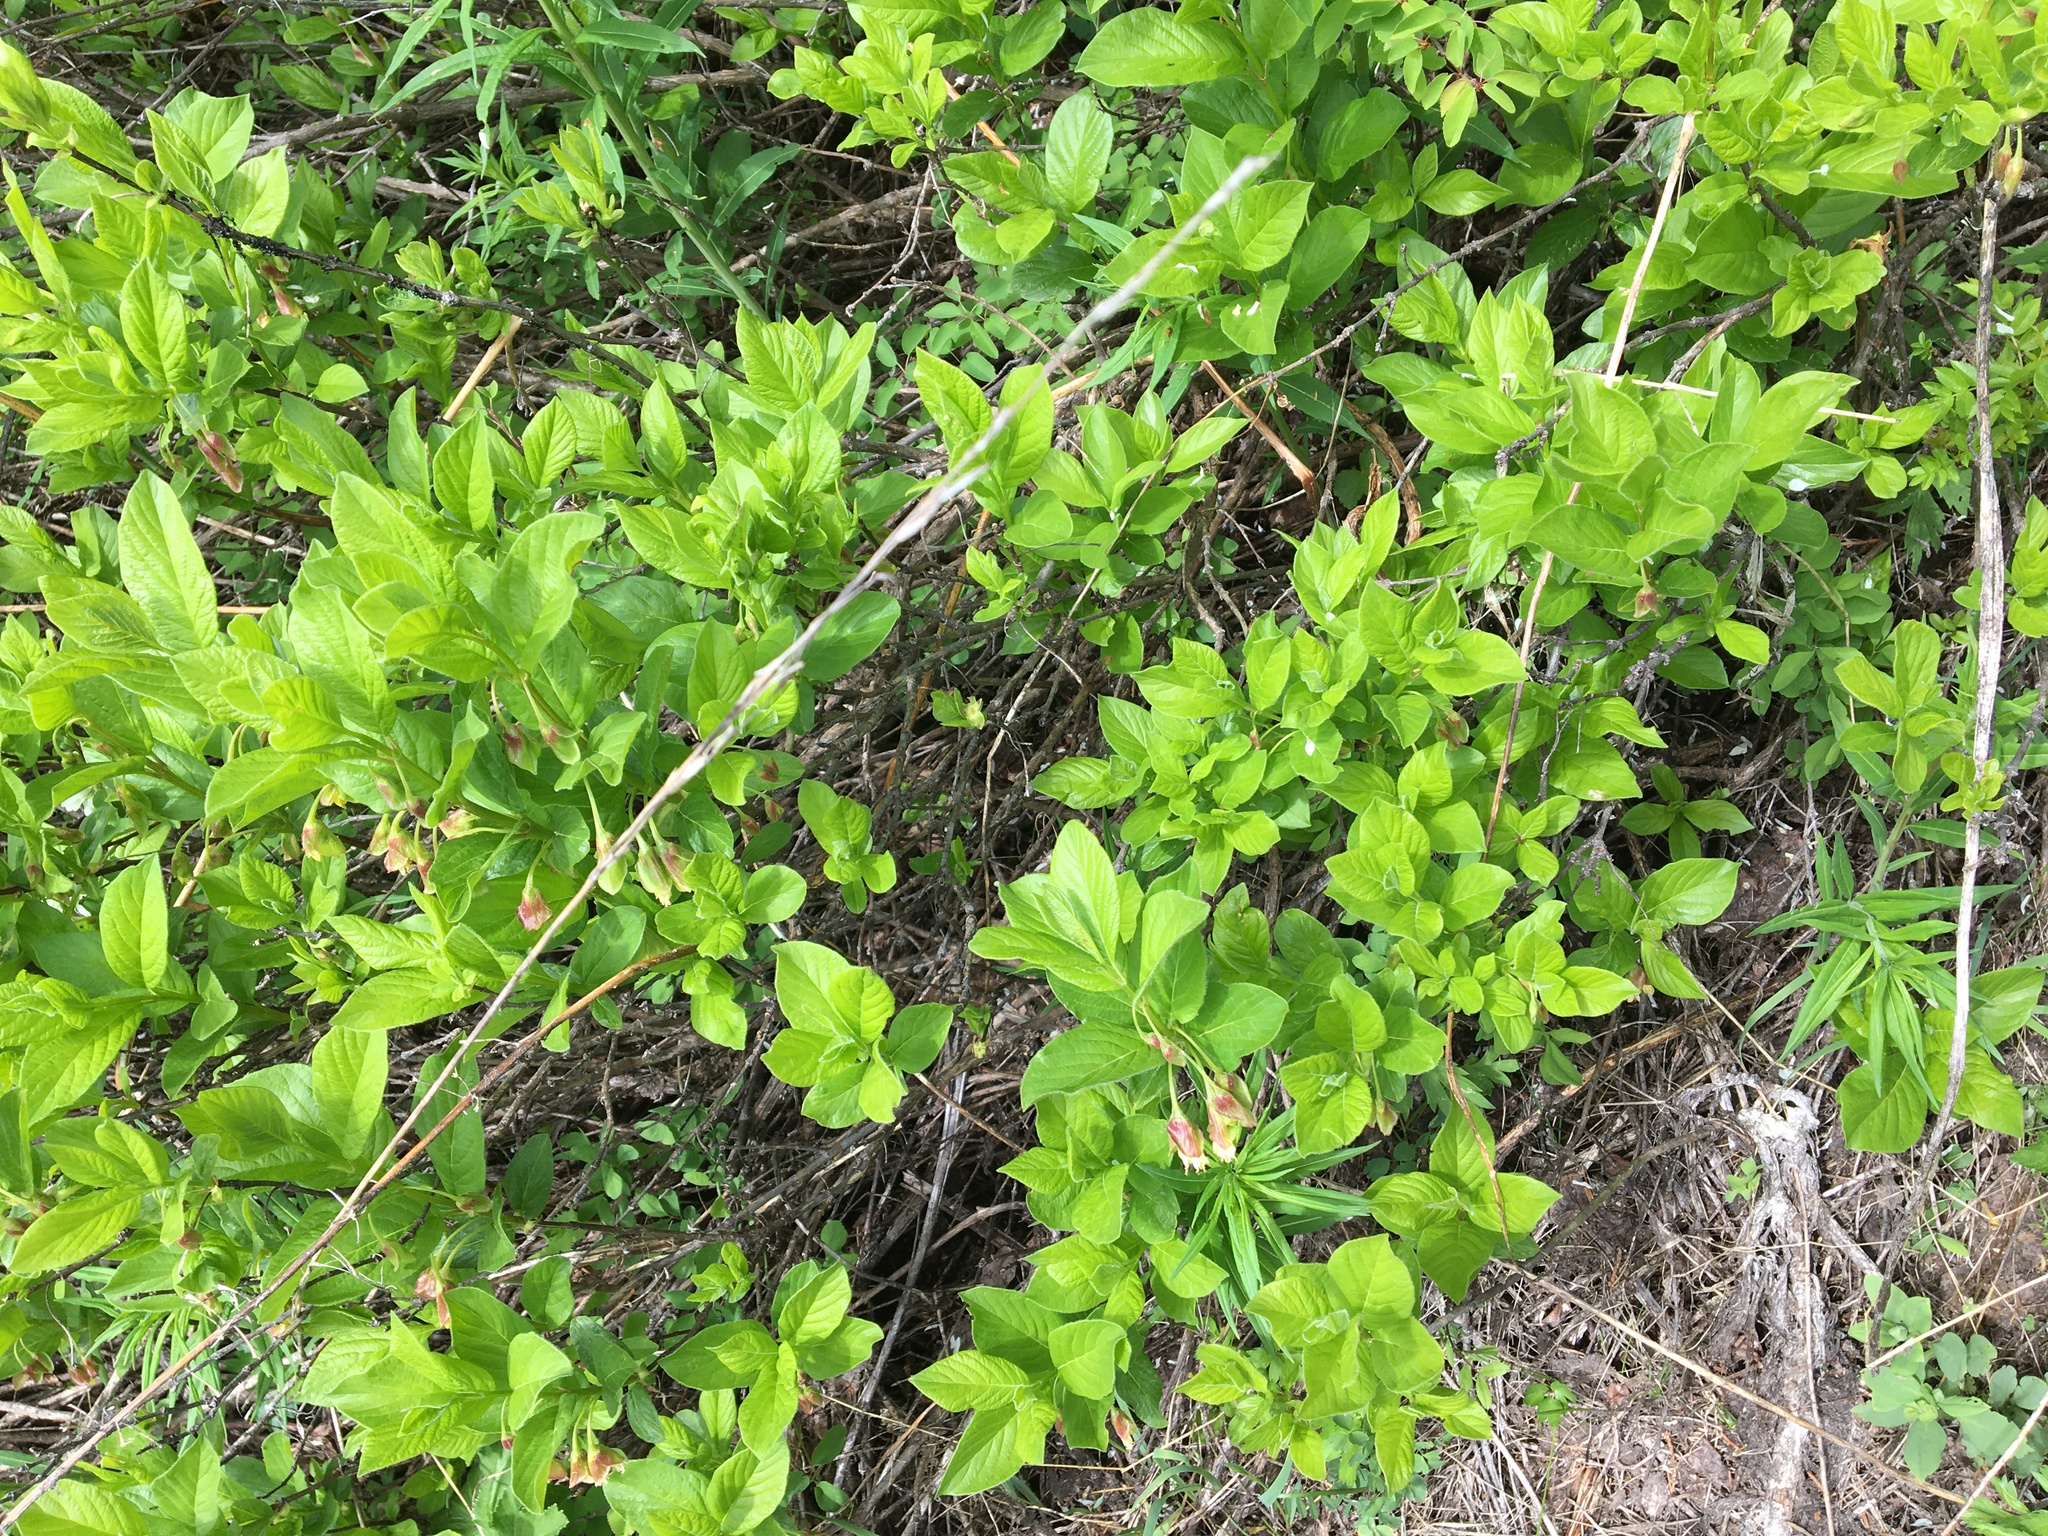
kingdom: Plantae
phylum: Tracheophyta
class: Magnoliopsida
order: Dipsacales
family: Caprifoliaceae
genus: Lonicera
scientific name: Lonicera involucrata
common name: Californian honeysuckle
